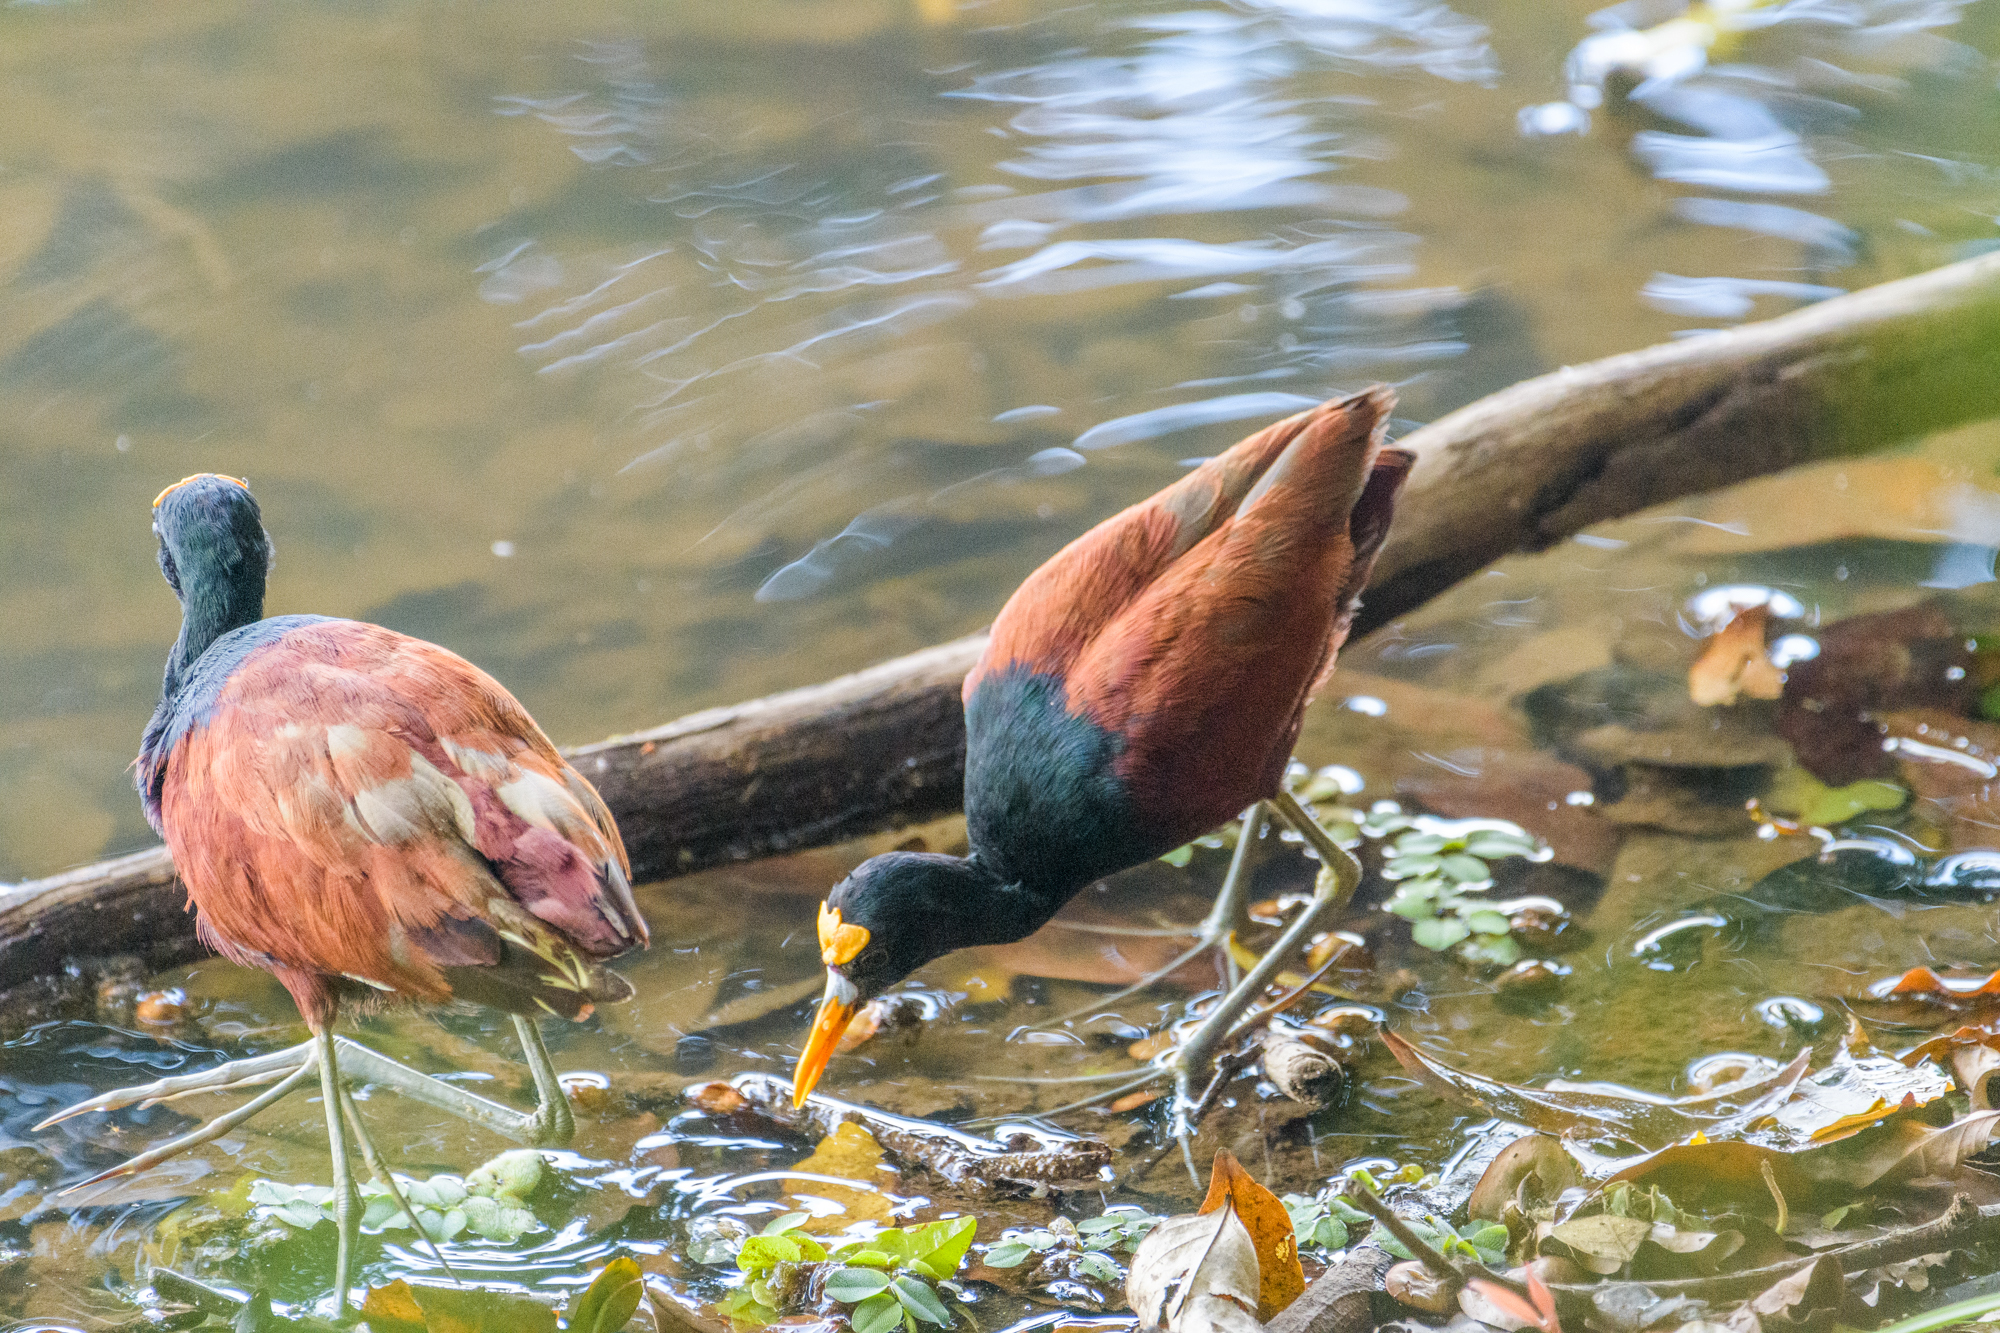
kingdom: Animalia
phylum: Chordata
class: Aves
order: Charadriiformes
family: Jacanidae
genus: Jacana
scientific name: Jacana spinosa
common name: Northern jacana
